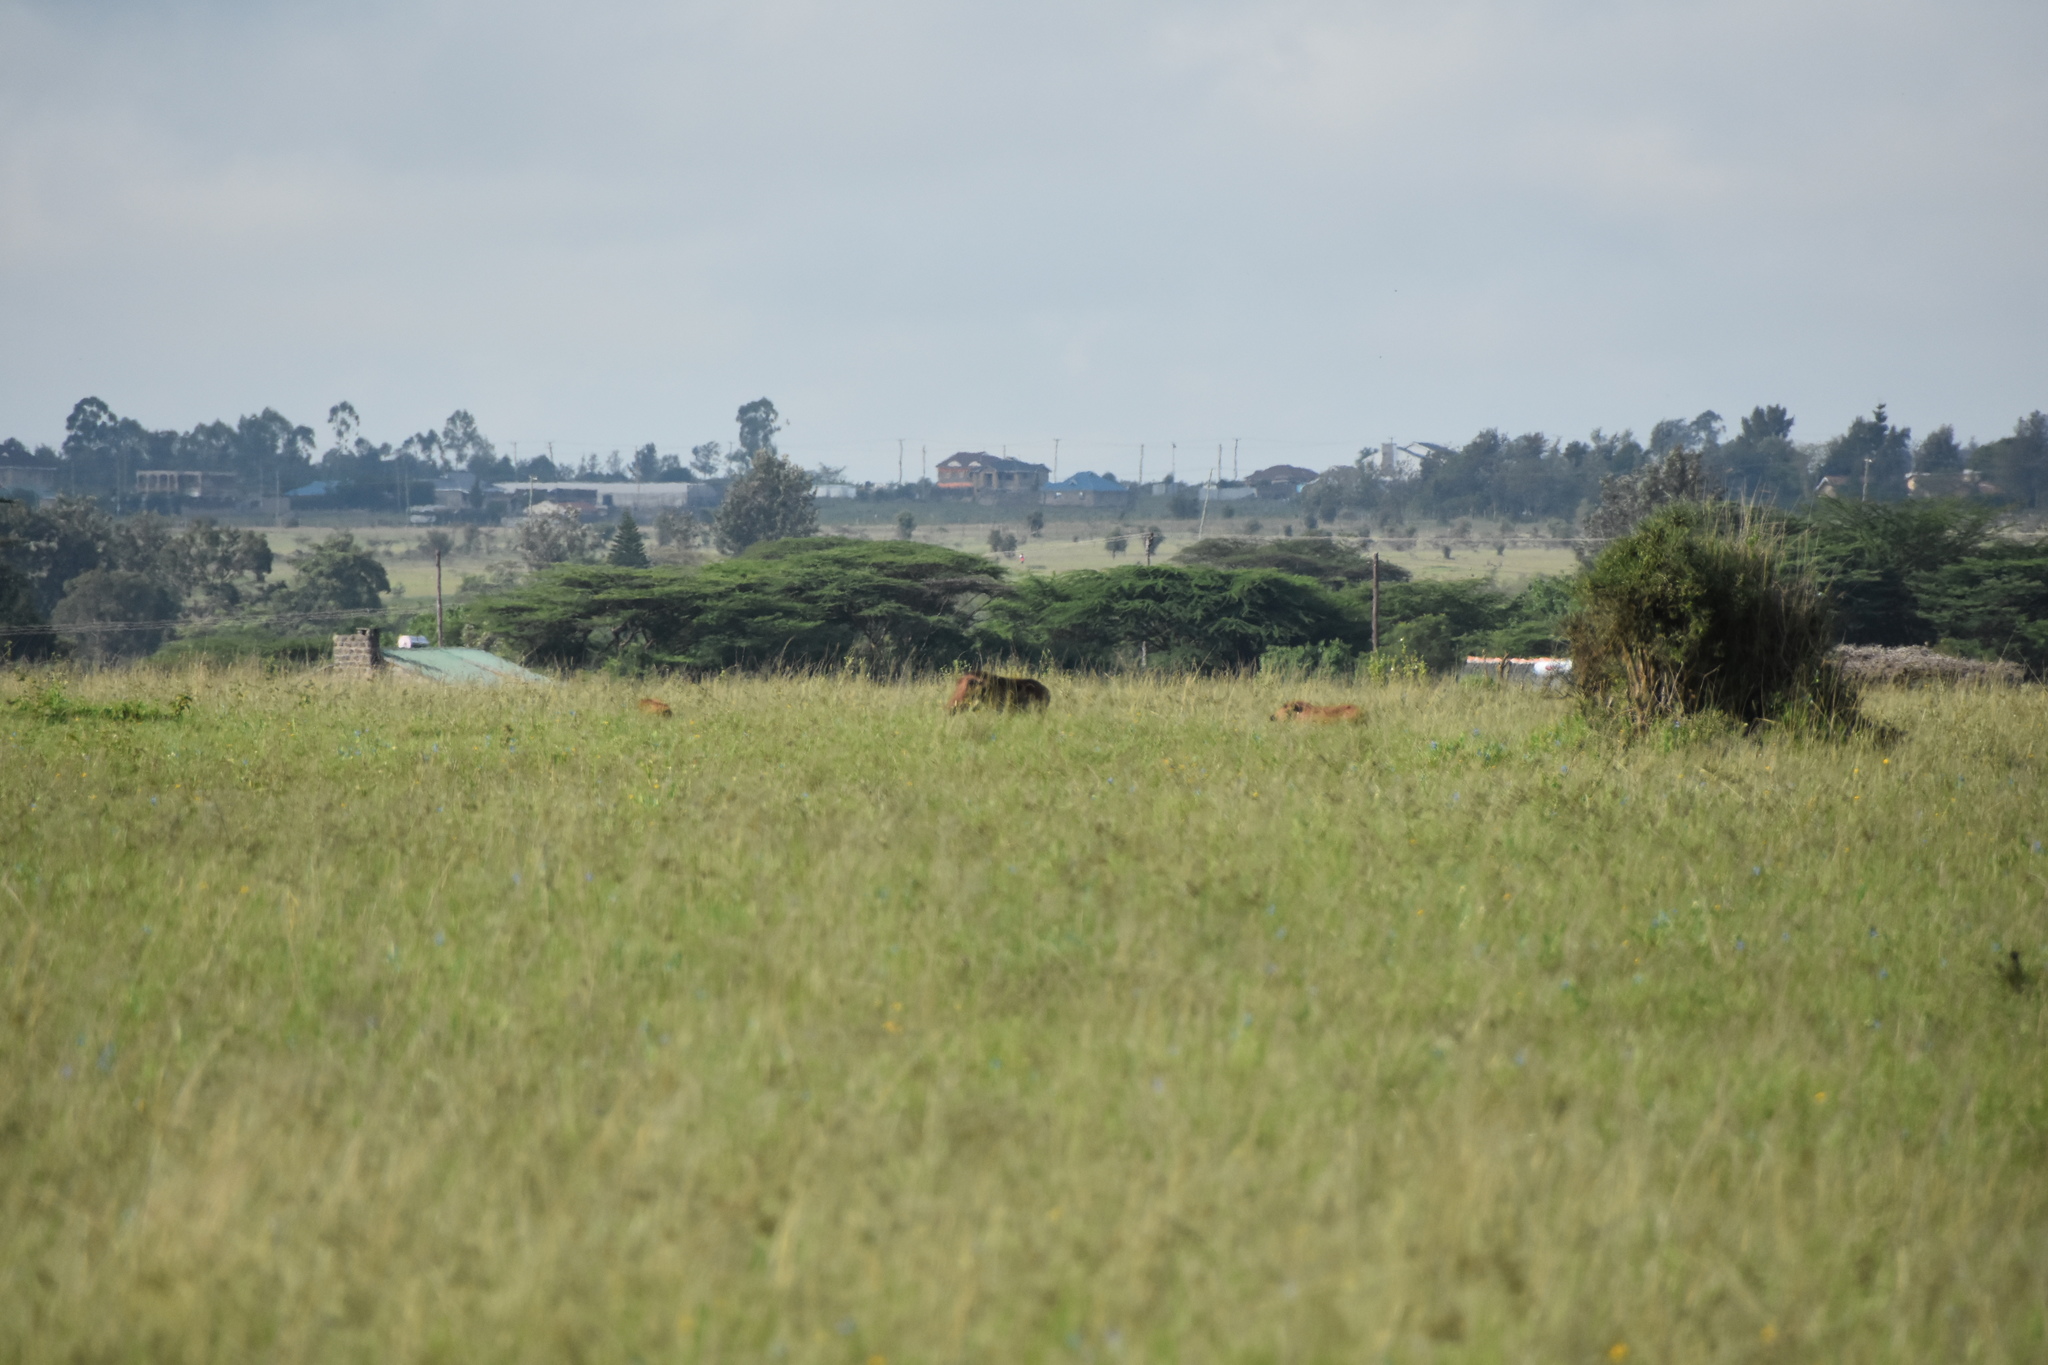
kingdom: Animalia
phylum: Chordata
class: Mammalia
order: Artiodactyla
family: Suidae
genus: Phacochoerus
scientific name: Phacochoerus africanus
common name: Common warthog
